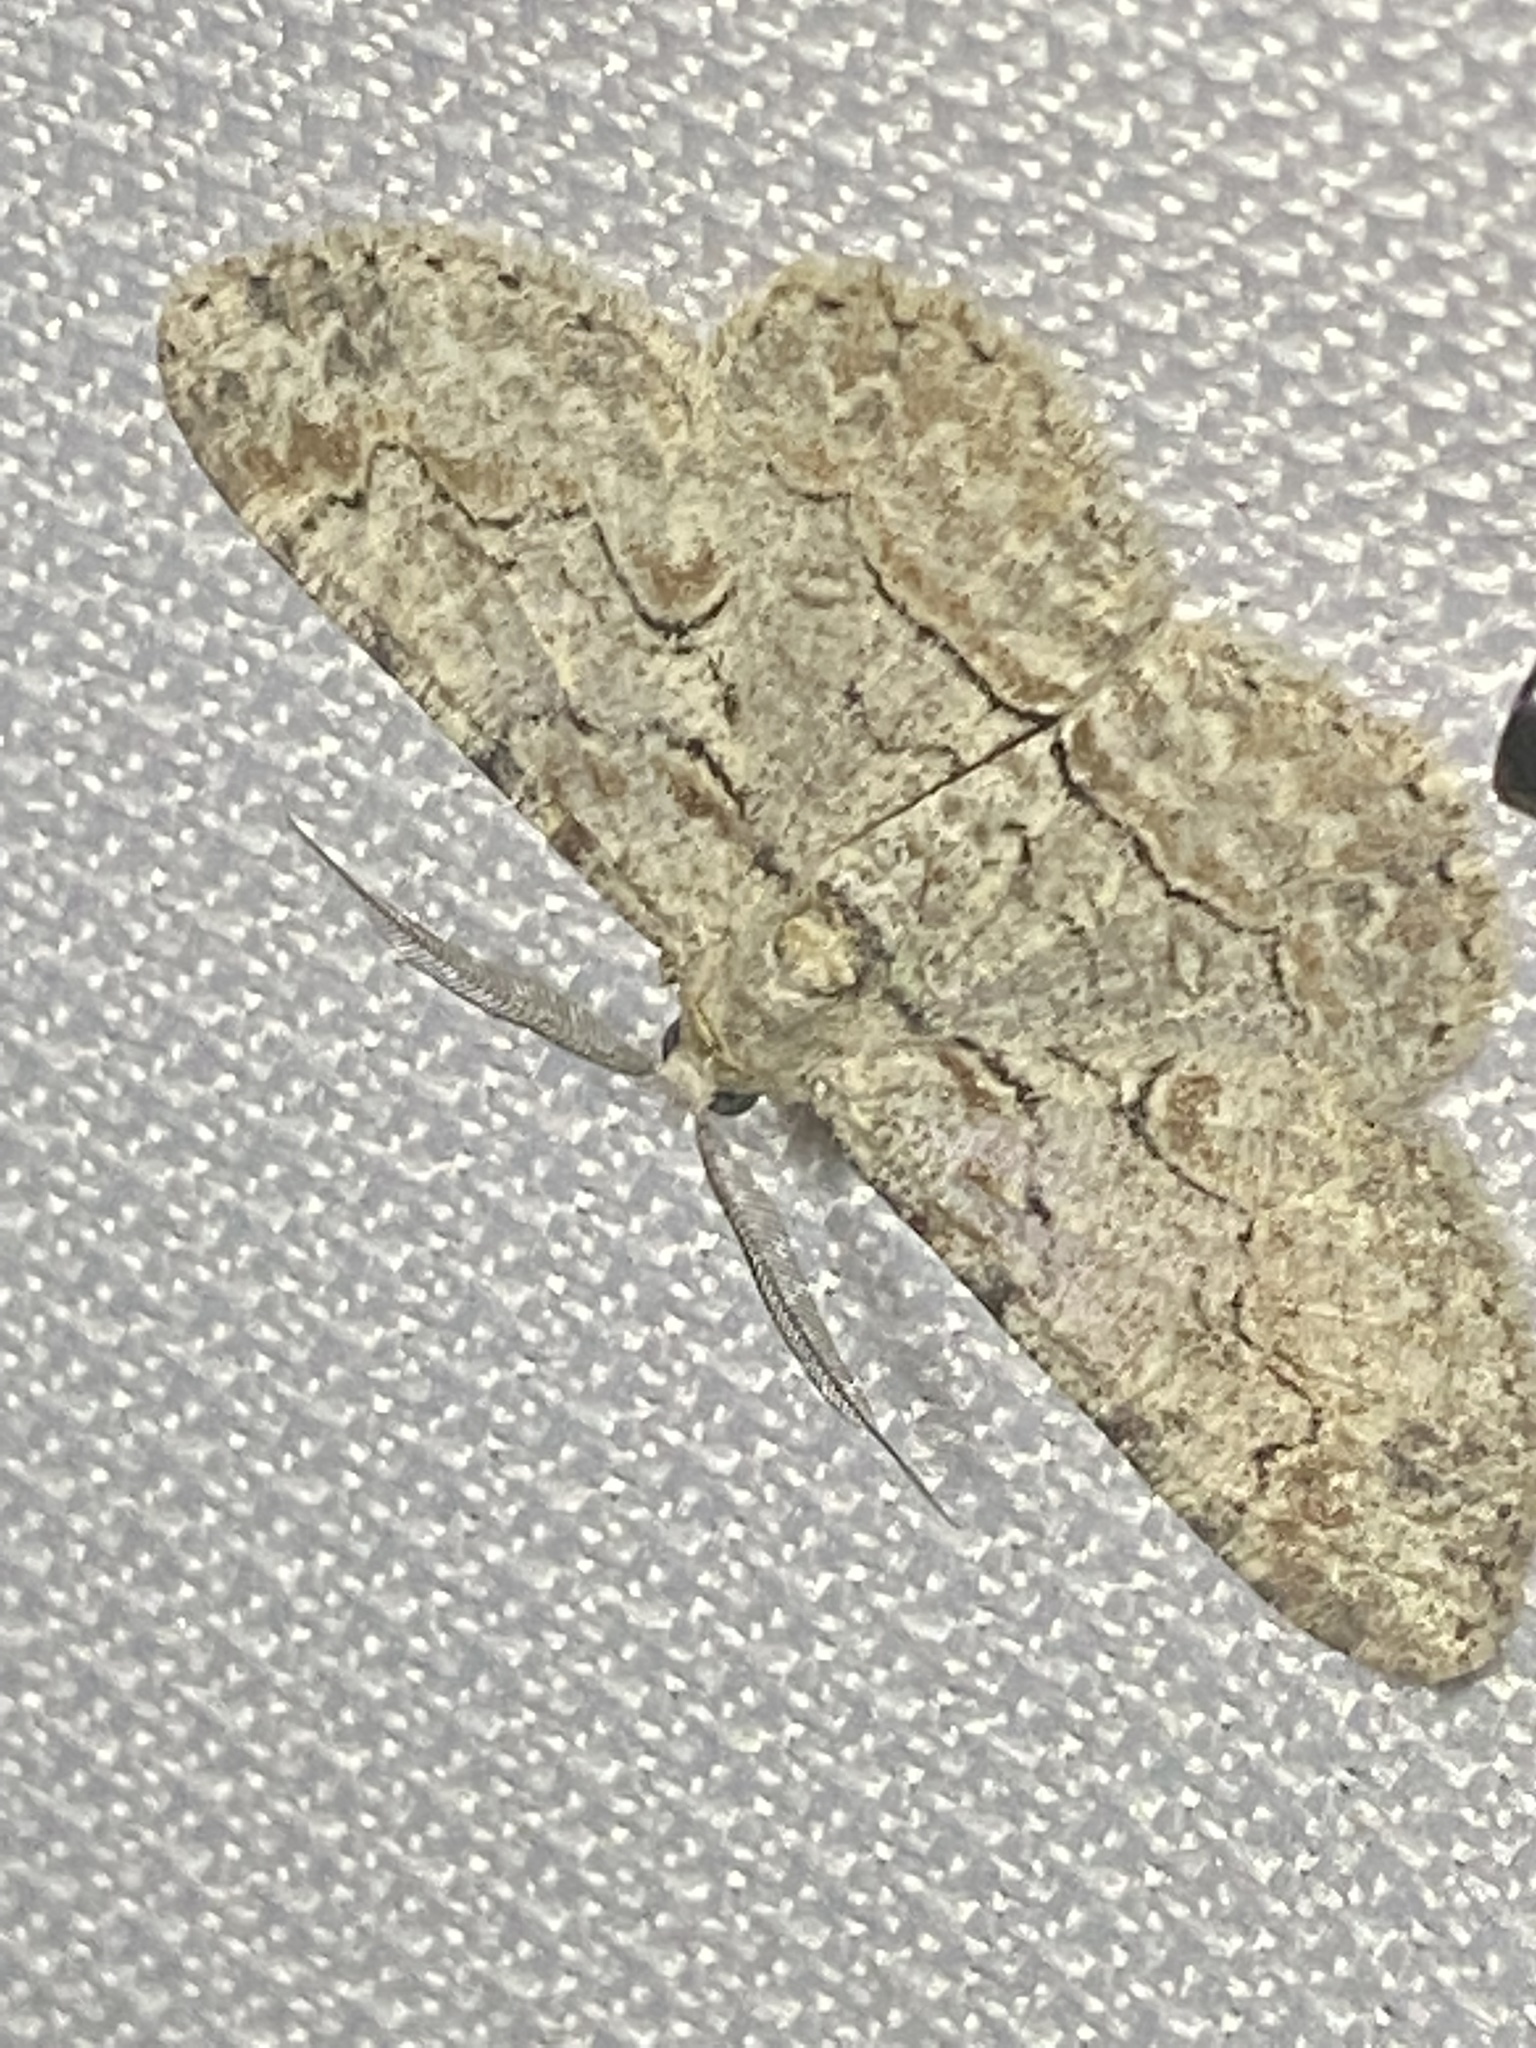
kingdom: Animalia
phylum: Arthropoda
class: Insecta
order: Lepidoptera
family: Geometridae
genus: Iridopsis
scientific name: Iridopsis defectaria
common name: Brown-shaded gray
